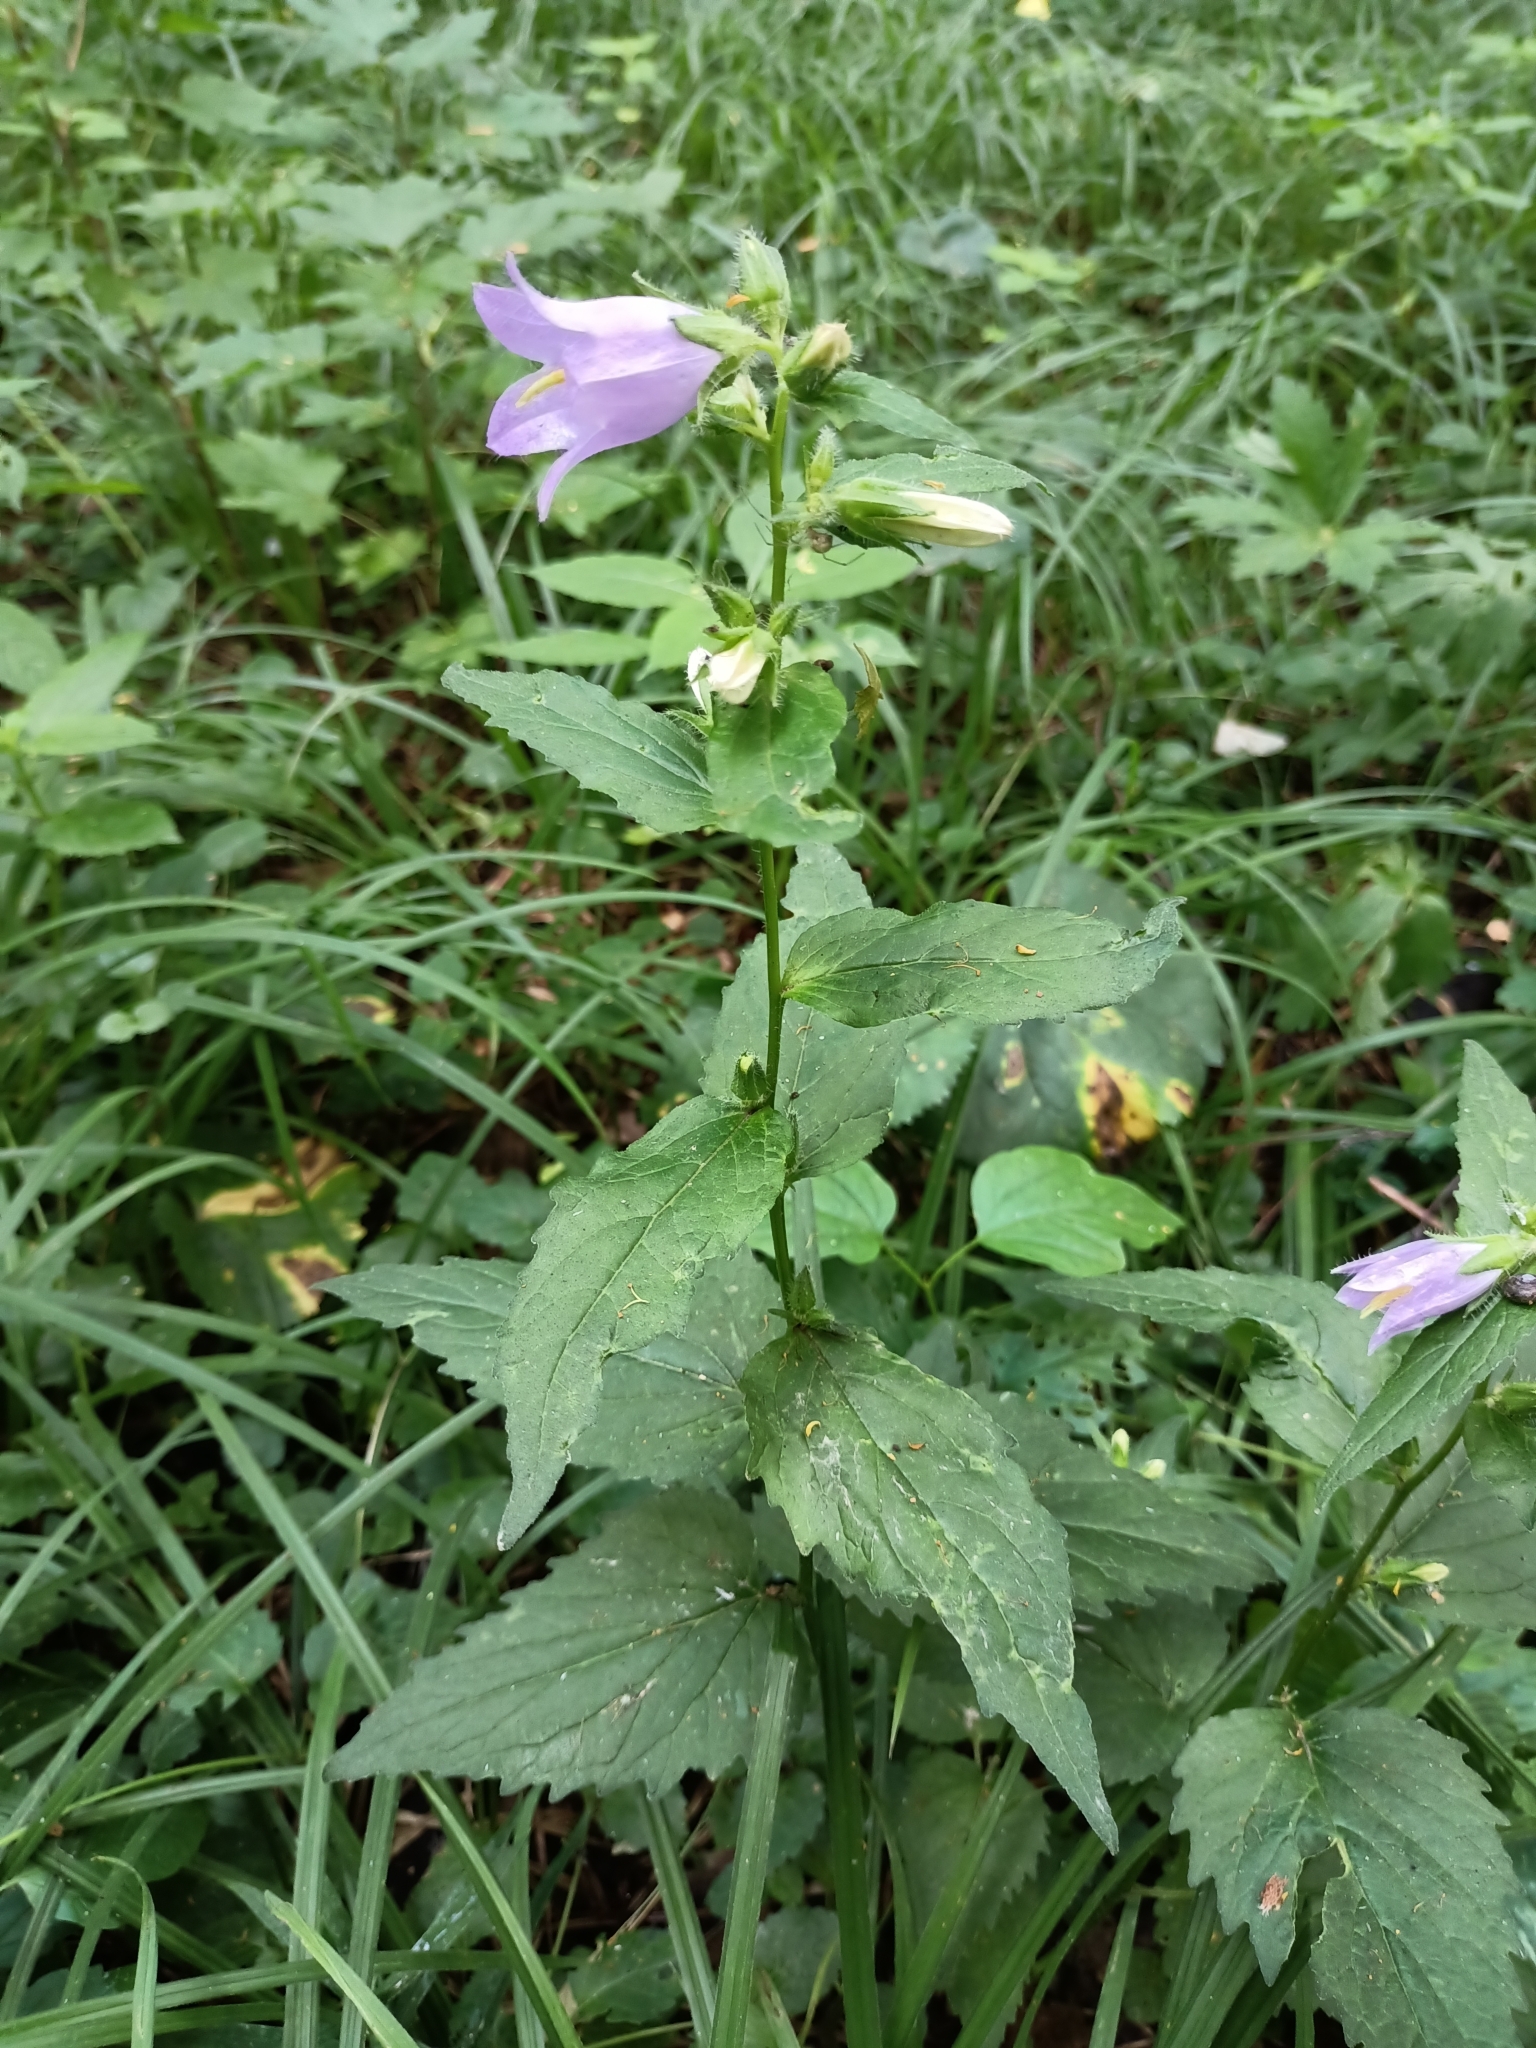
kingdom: Plantae
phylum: Tracheophyta
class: Magnoliopsida
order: Asterales
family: Campanulaceae
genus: Campanula
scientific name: Campanula trachelium
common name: Nettle-leaved bellflower
